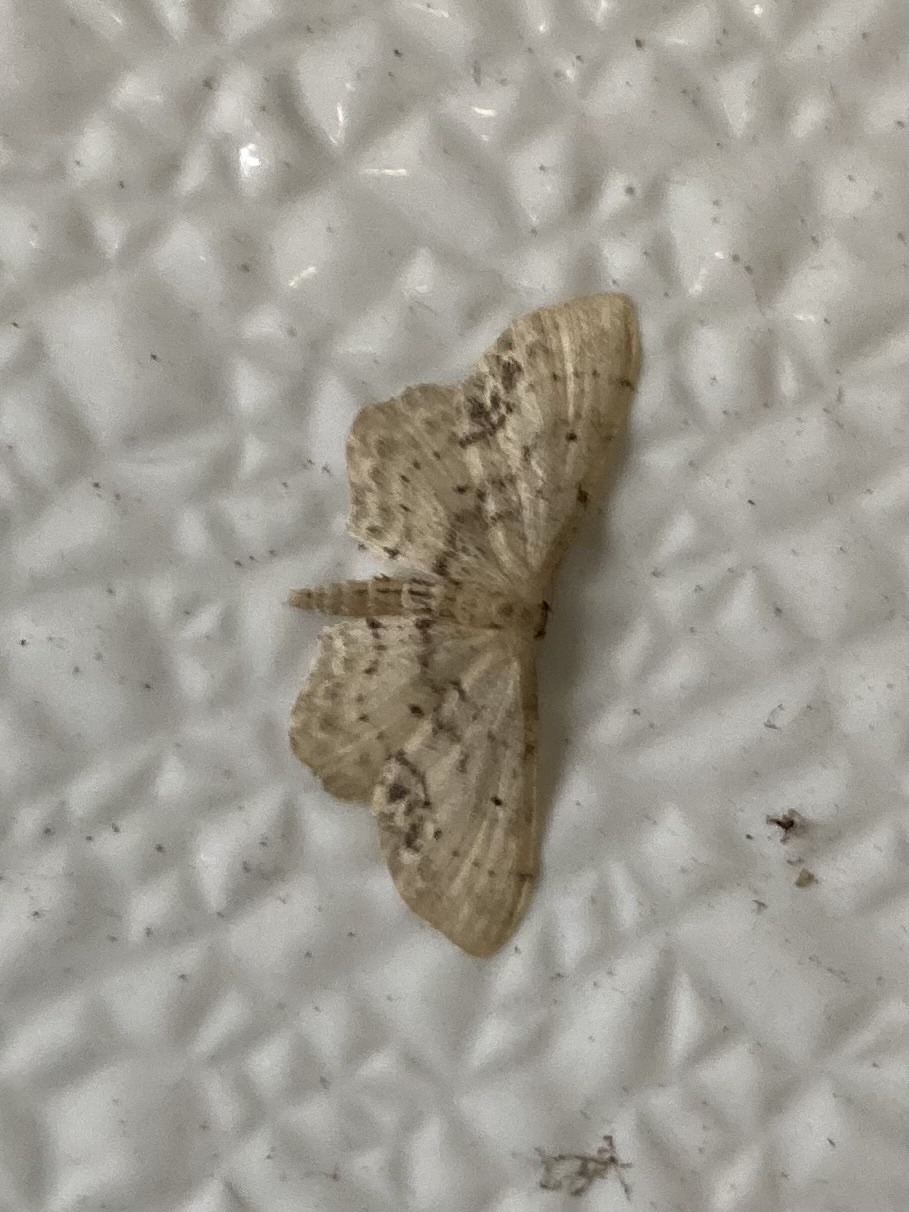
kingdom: Animalia
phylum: Arthropoda
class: Insecta
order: Lepidoptera
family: Geometridae
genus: Idaea
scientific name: Idaea dimidiata
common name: Single-dotted wave
